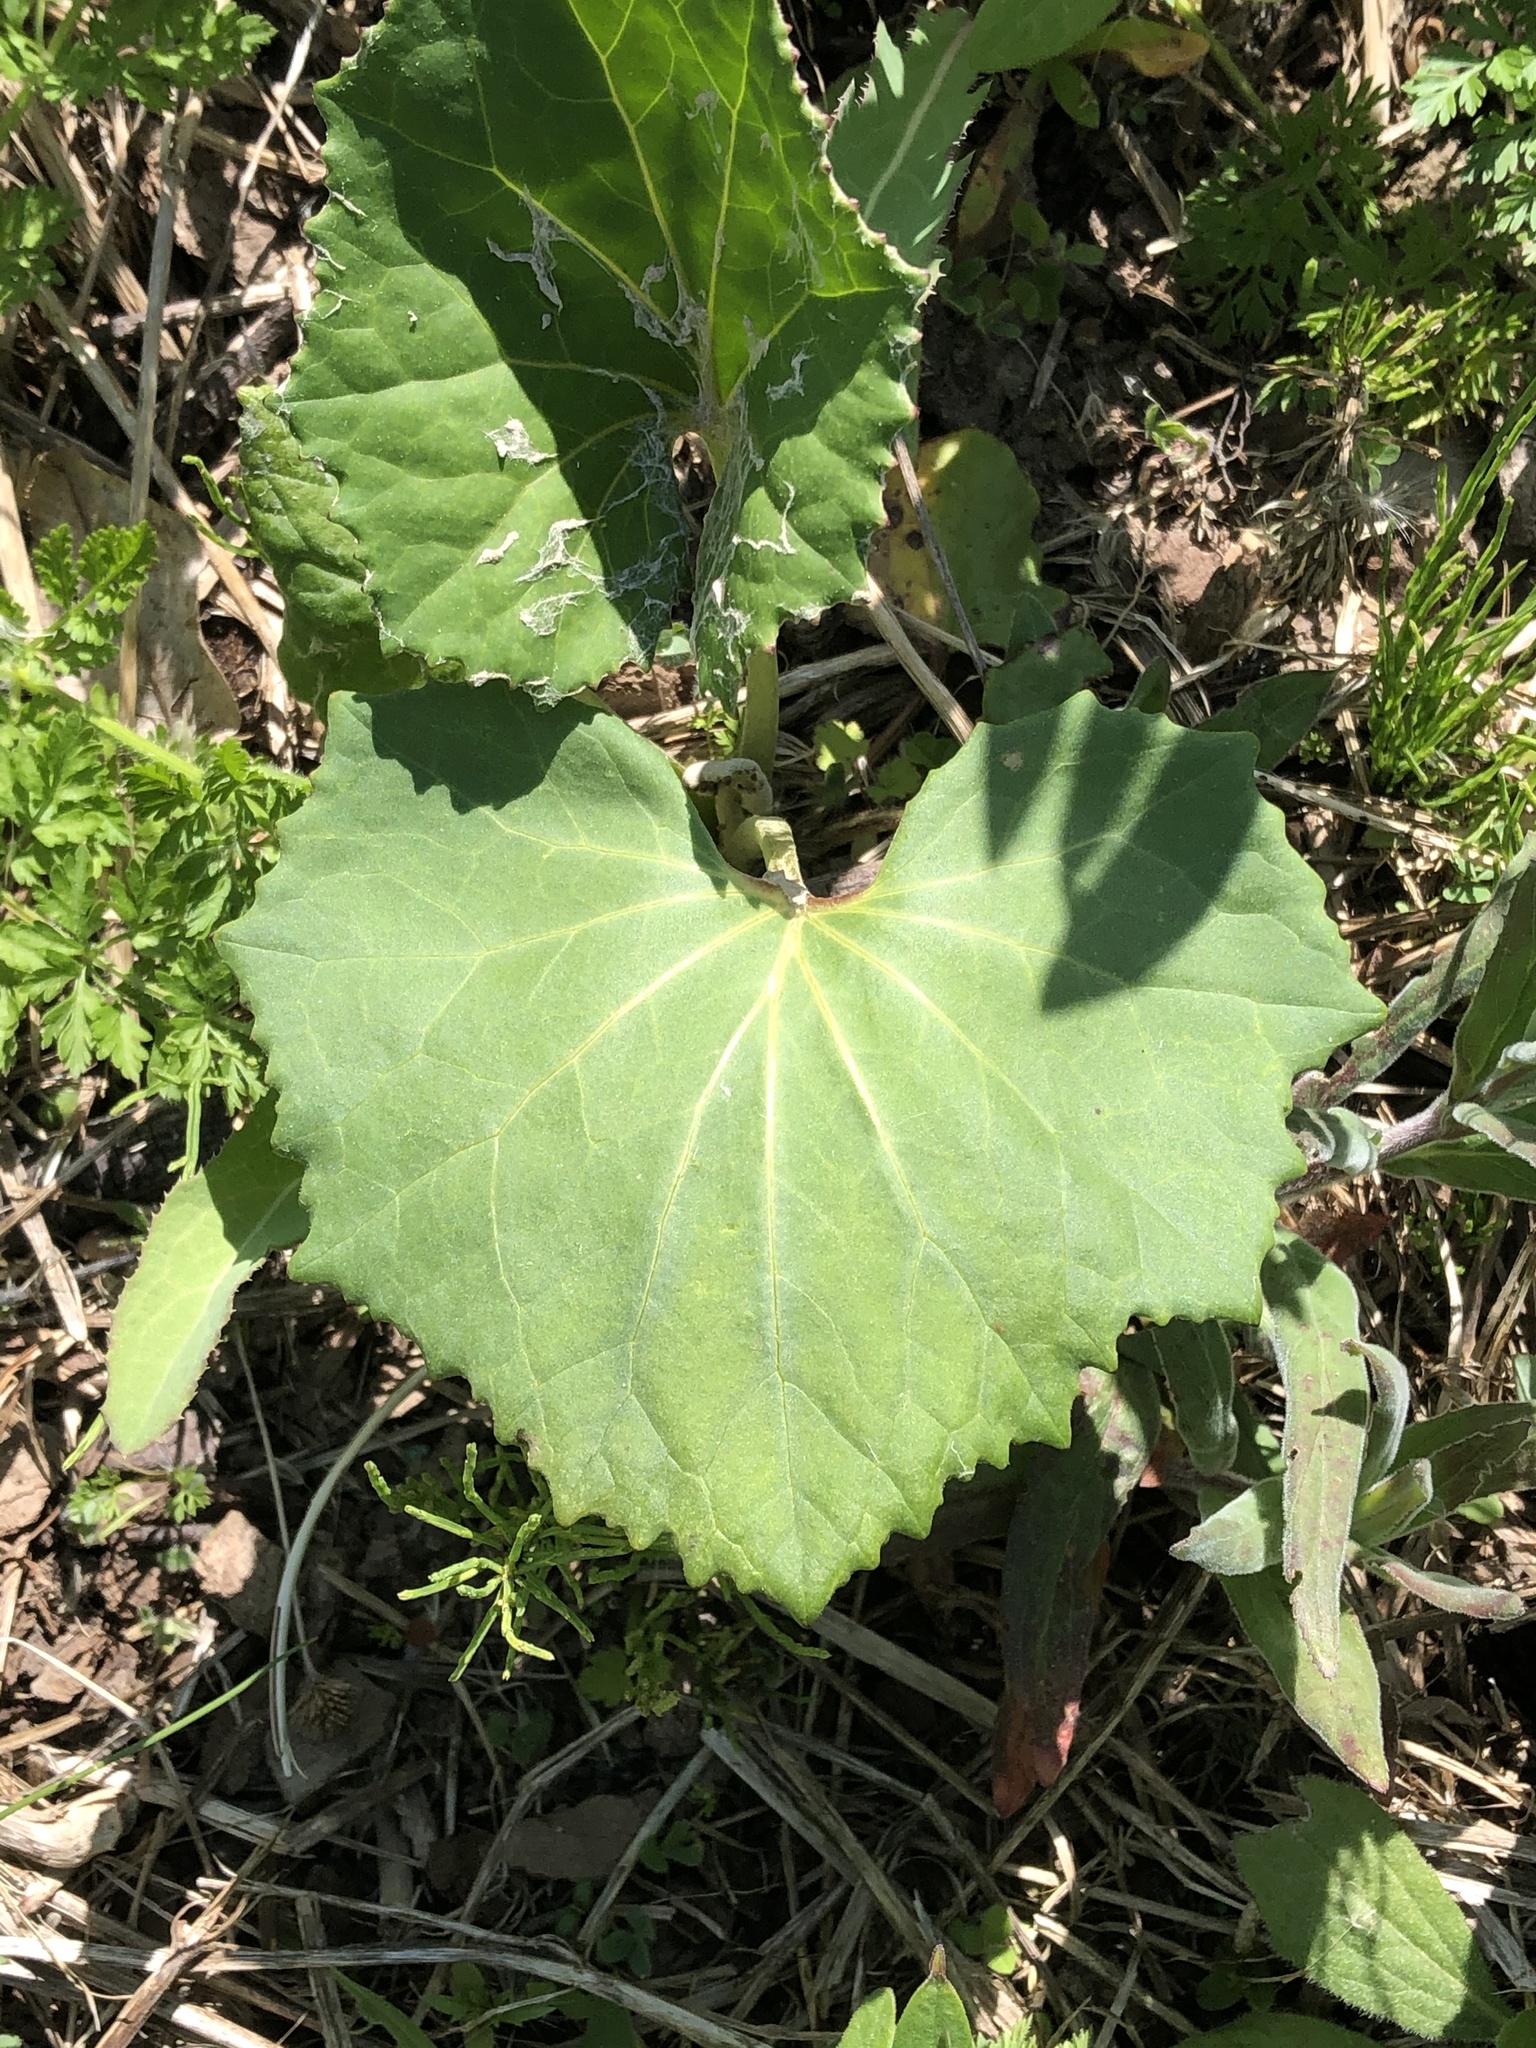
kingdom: Plantae
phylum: Tracheophyta
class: Magnoliopsida
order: Asterales
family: Asteraceae
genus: Tussilago
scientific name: Tussilago farfara
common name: Coltsfoot
